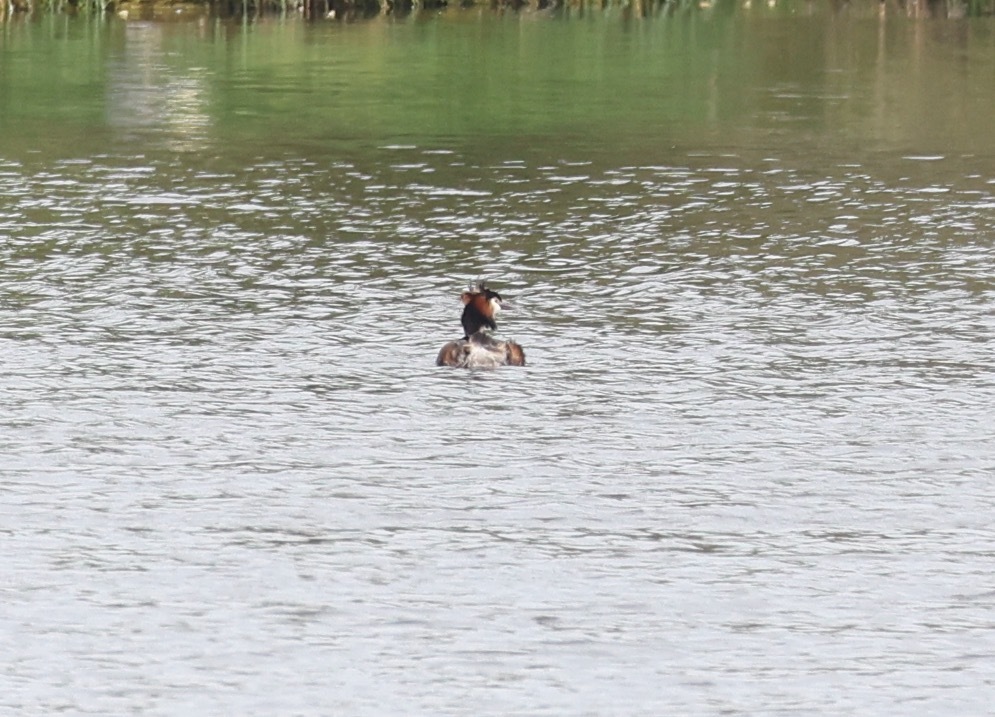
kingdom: Animalia
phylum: Chordata
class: Aves
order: Podicipediformes
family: Podicipedidae
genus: Podiceps
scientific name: Podiceps cristatus
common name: Great crested grebe
